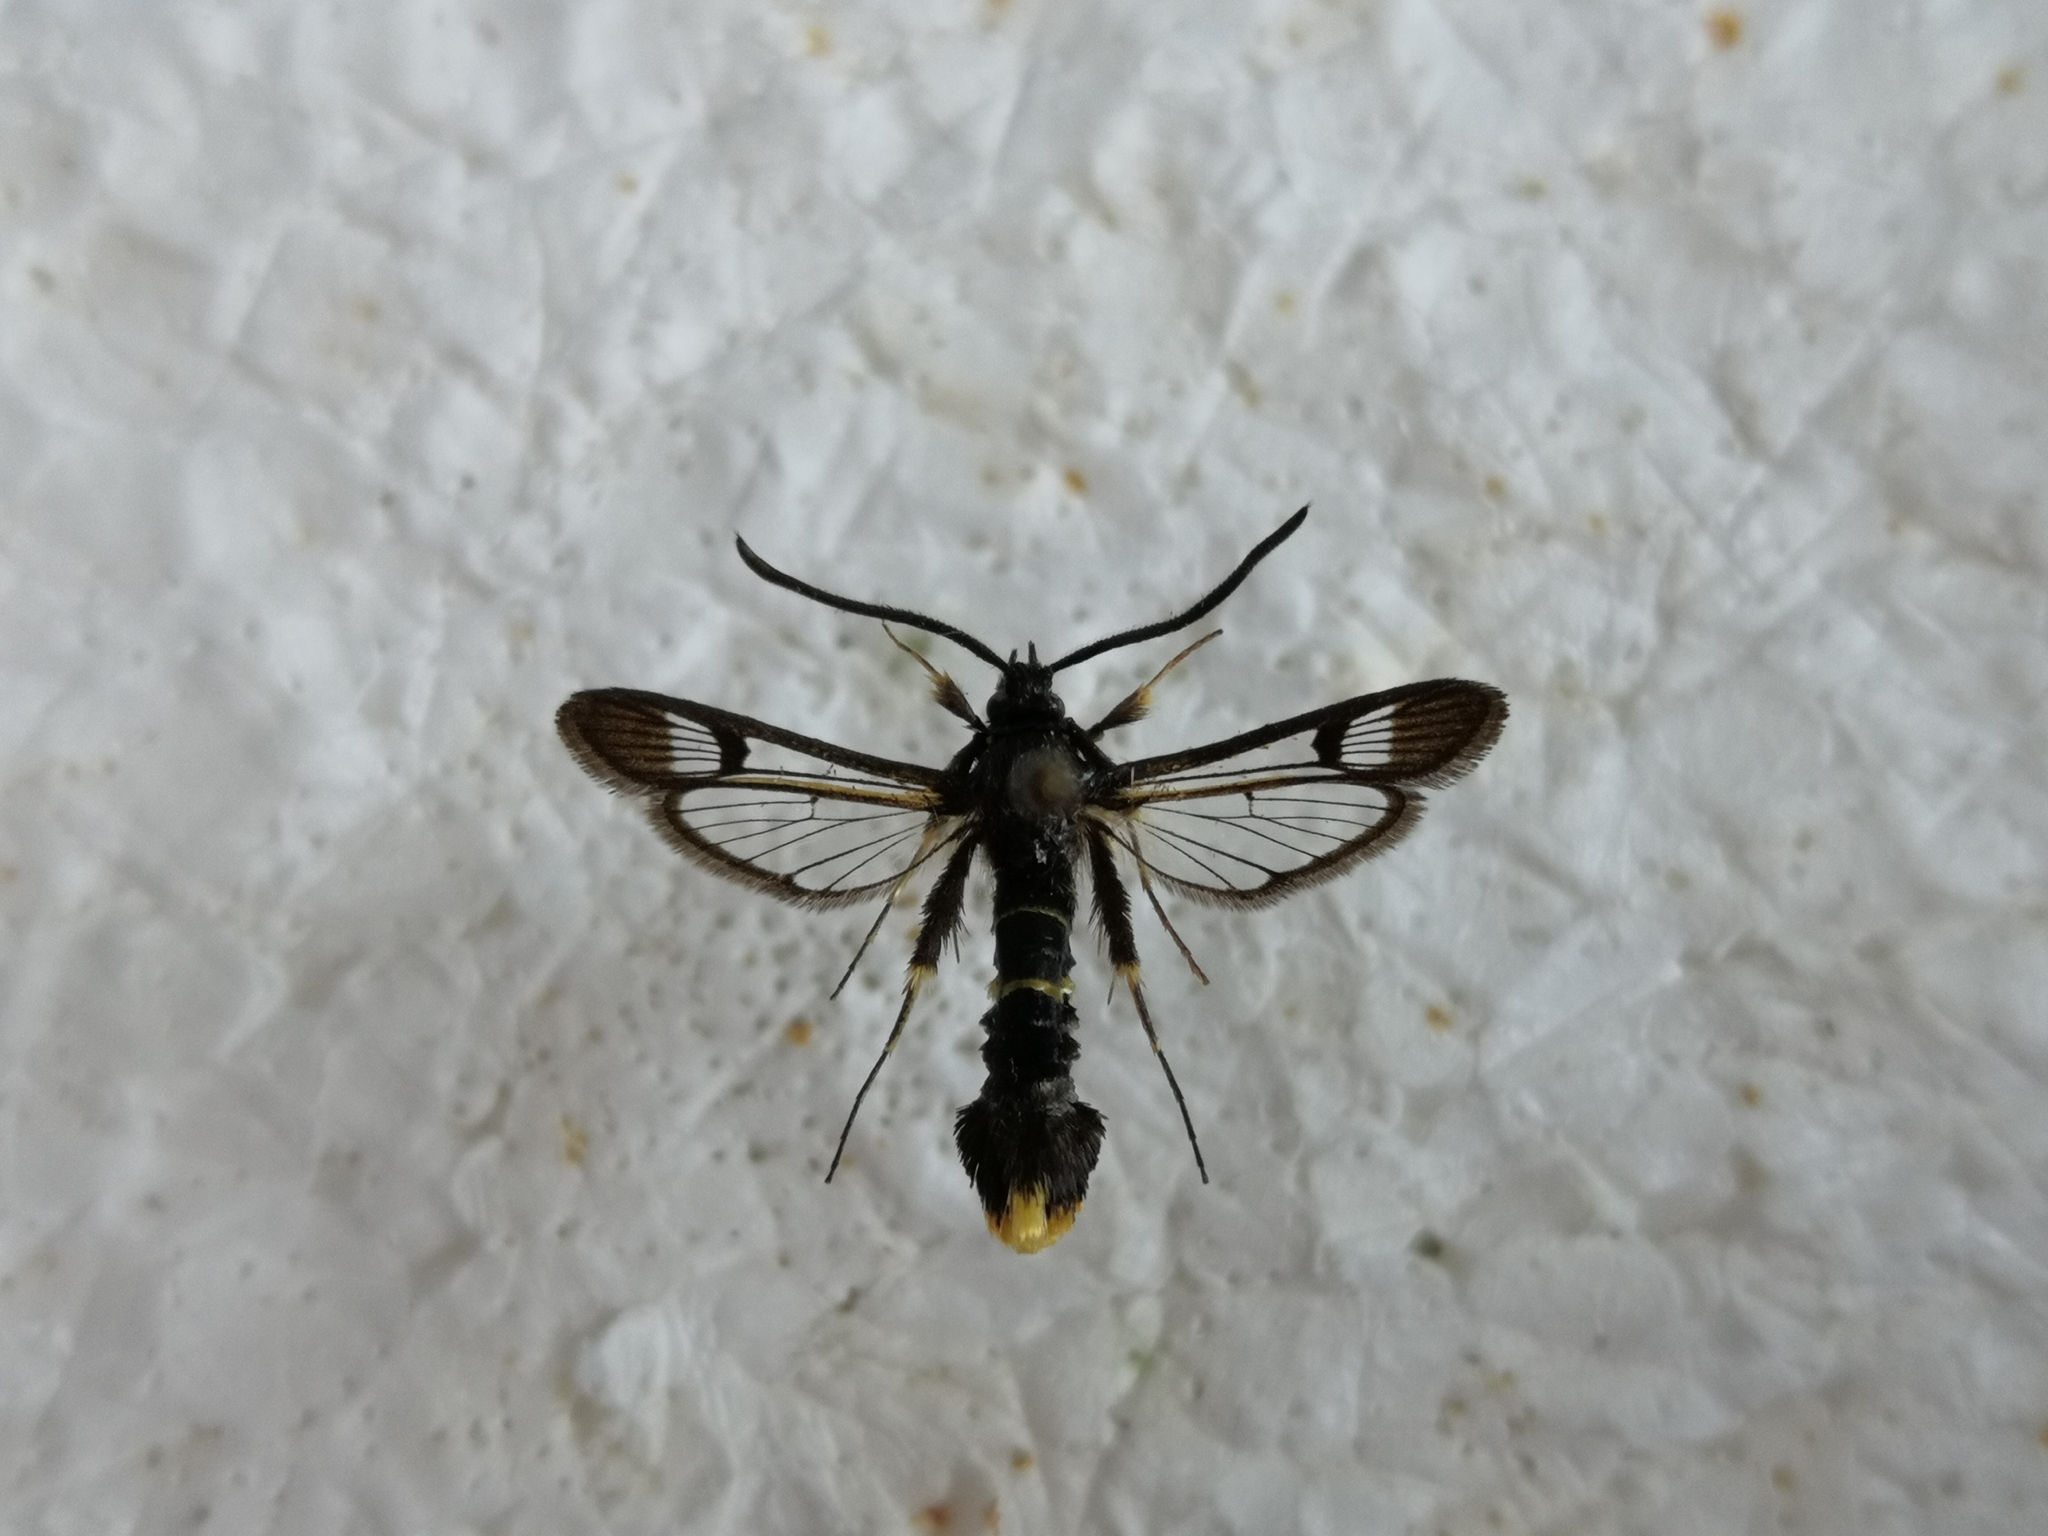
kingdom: Animalia
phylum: Arthropoda
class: Insecta
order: Lepidoptera
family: Sesiidae
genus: Synanthedon
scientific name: Synanthedon andrenaeformis
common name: Orange-tailed clearwing
